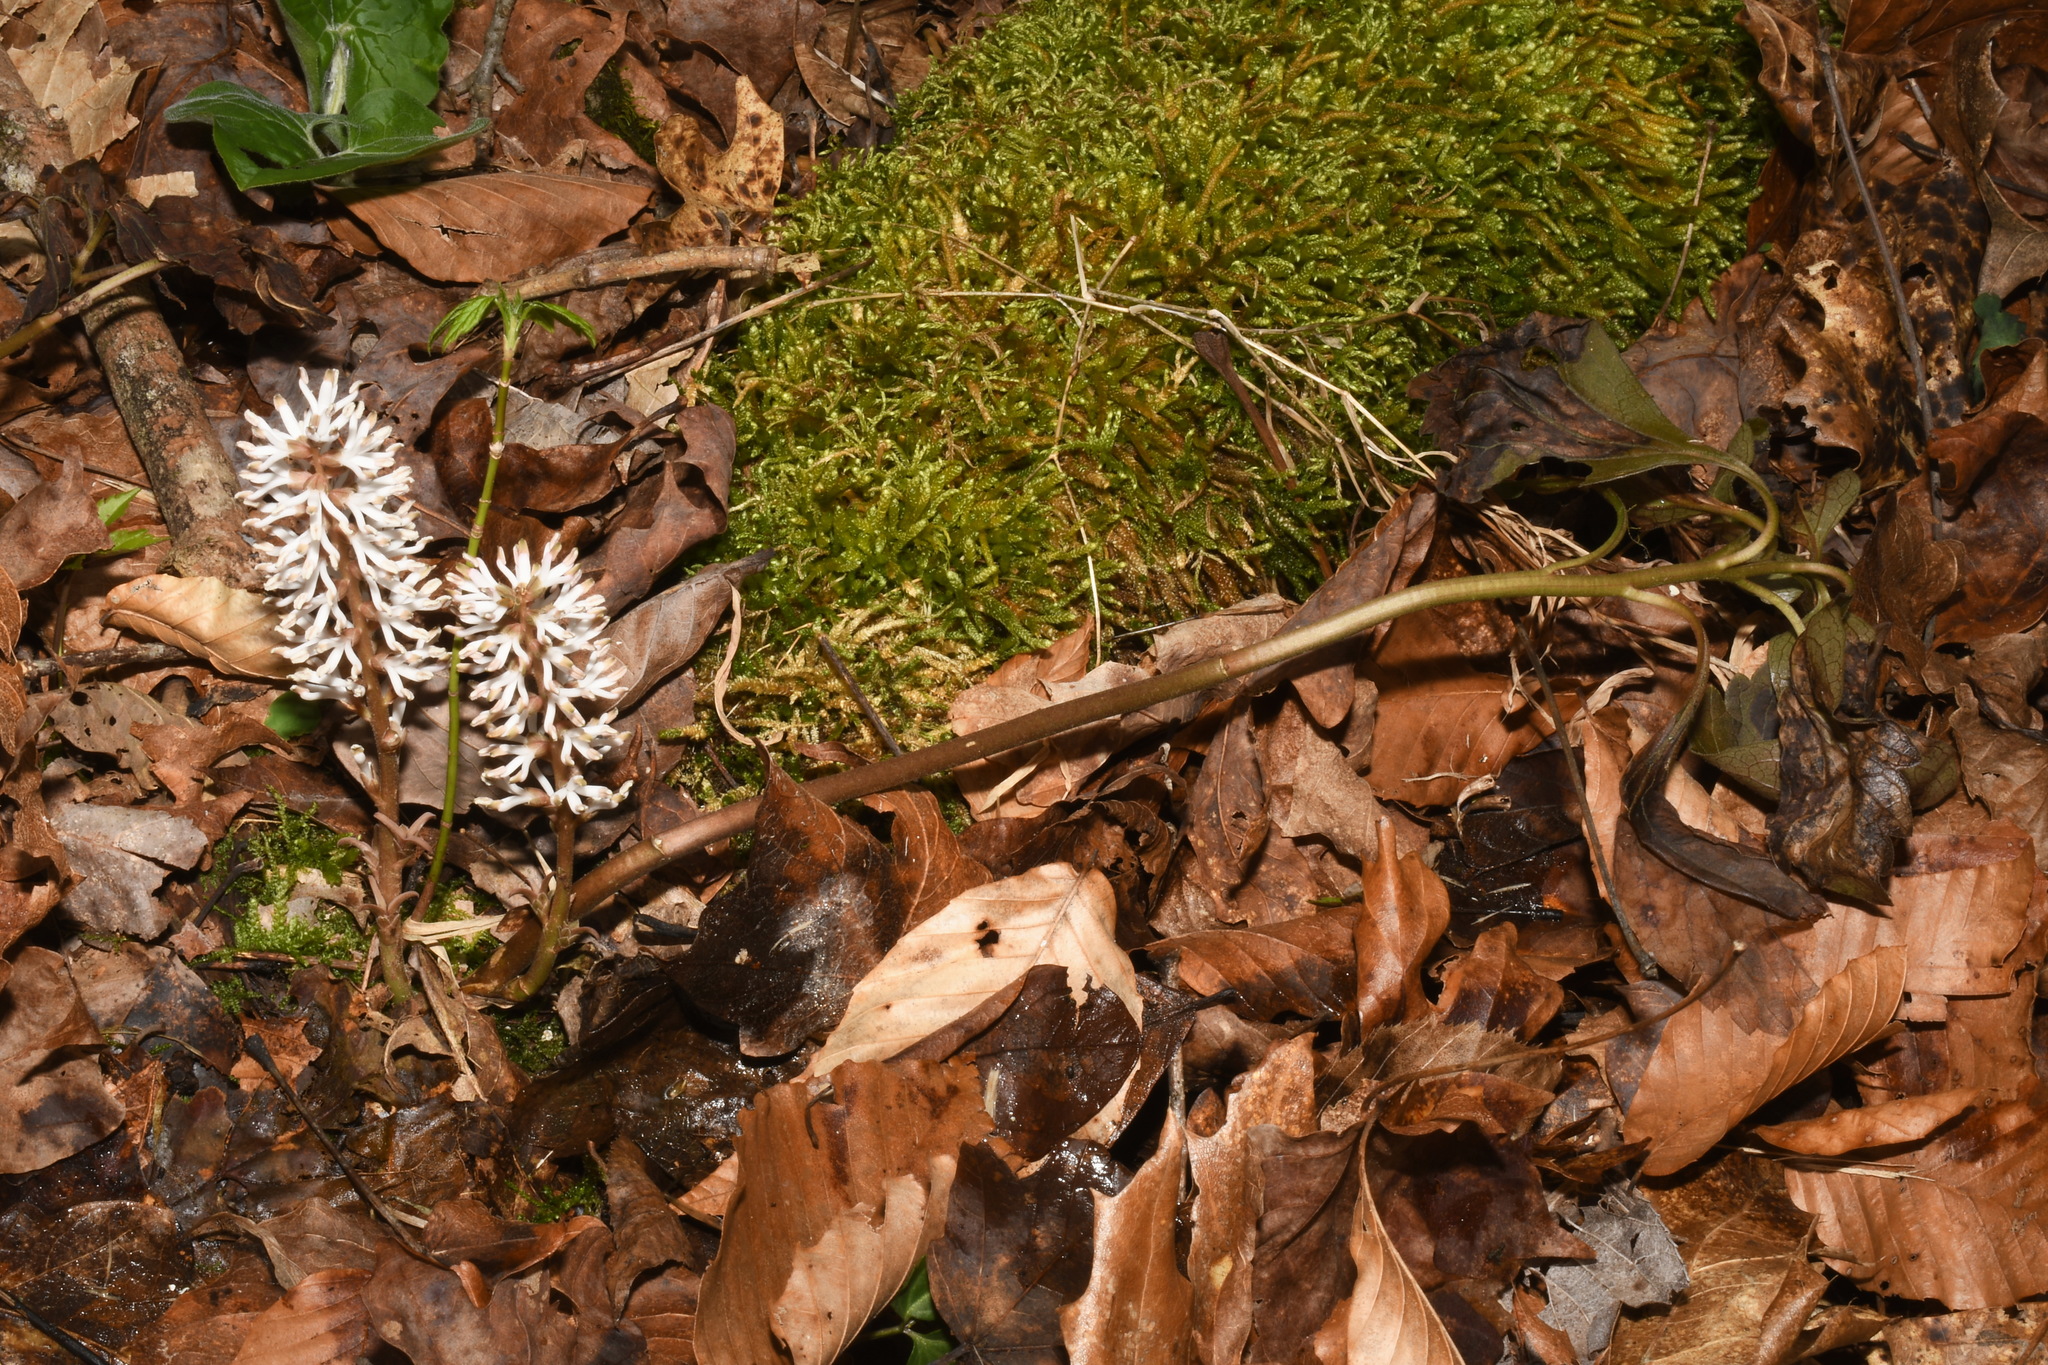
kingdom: Plantae
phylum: Tracheophyta
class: Magnoliopsida
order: Buxales
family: Buxaceae
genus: Pachysandra
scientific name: Pachysandra procumbens
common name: Mountain-spurge
